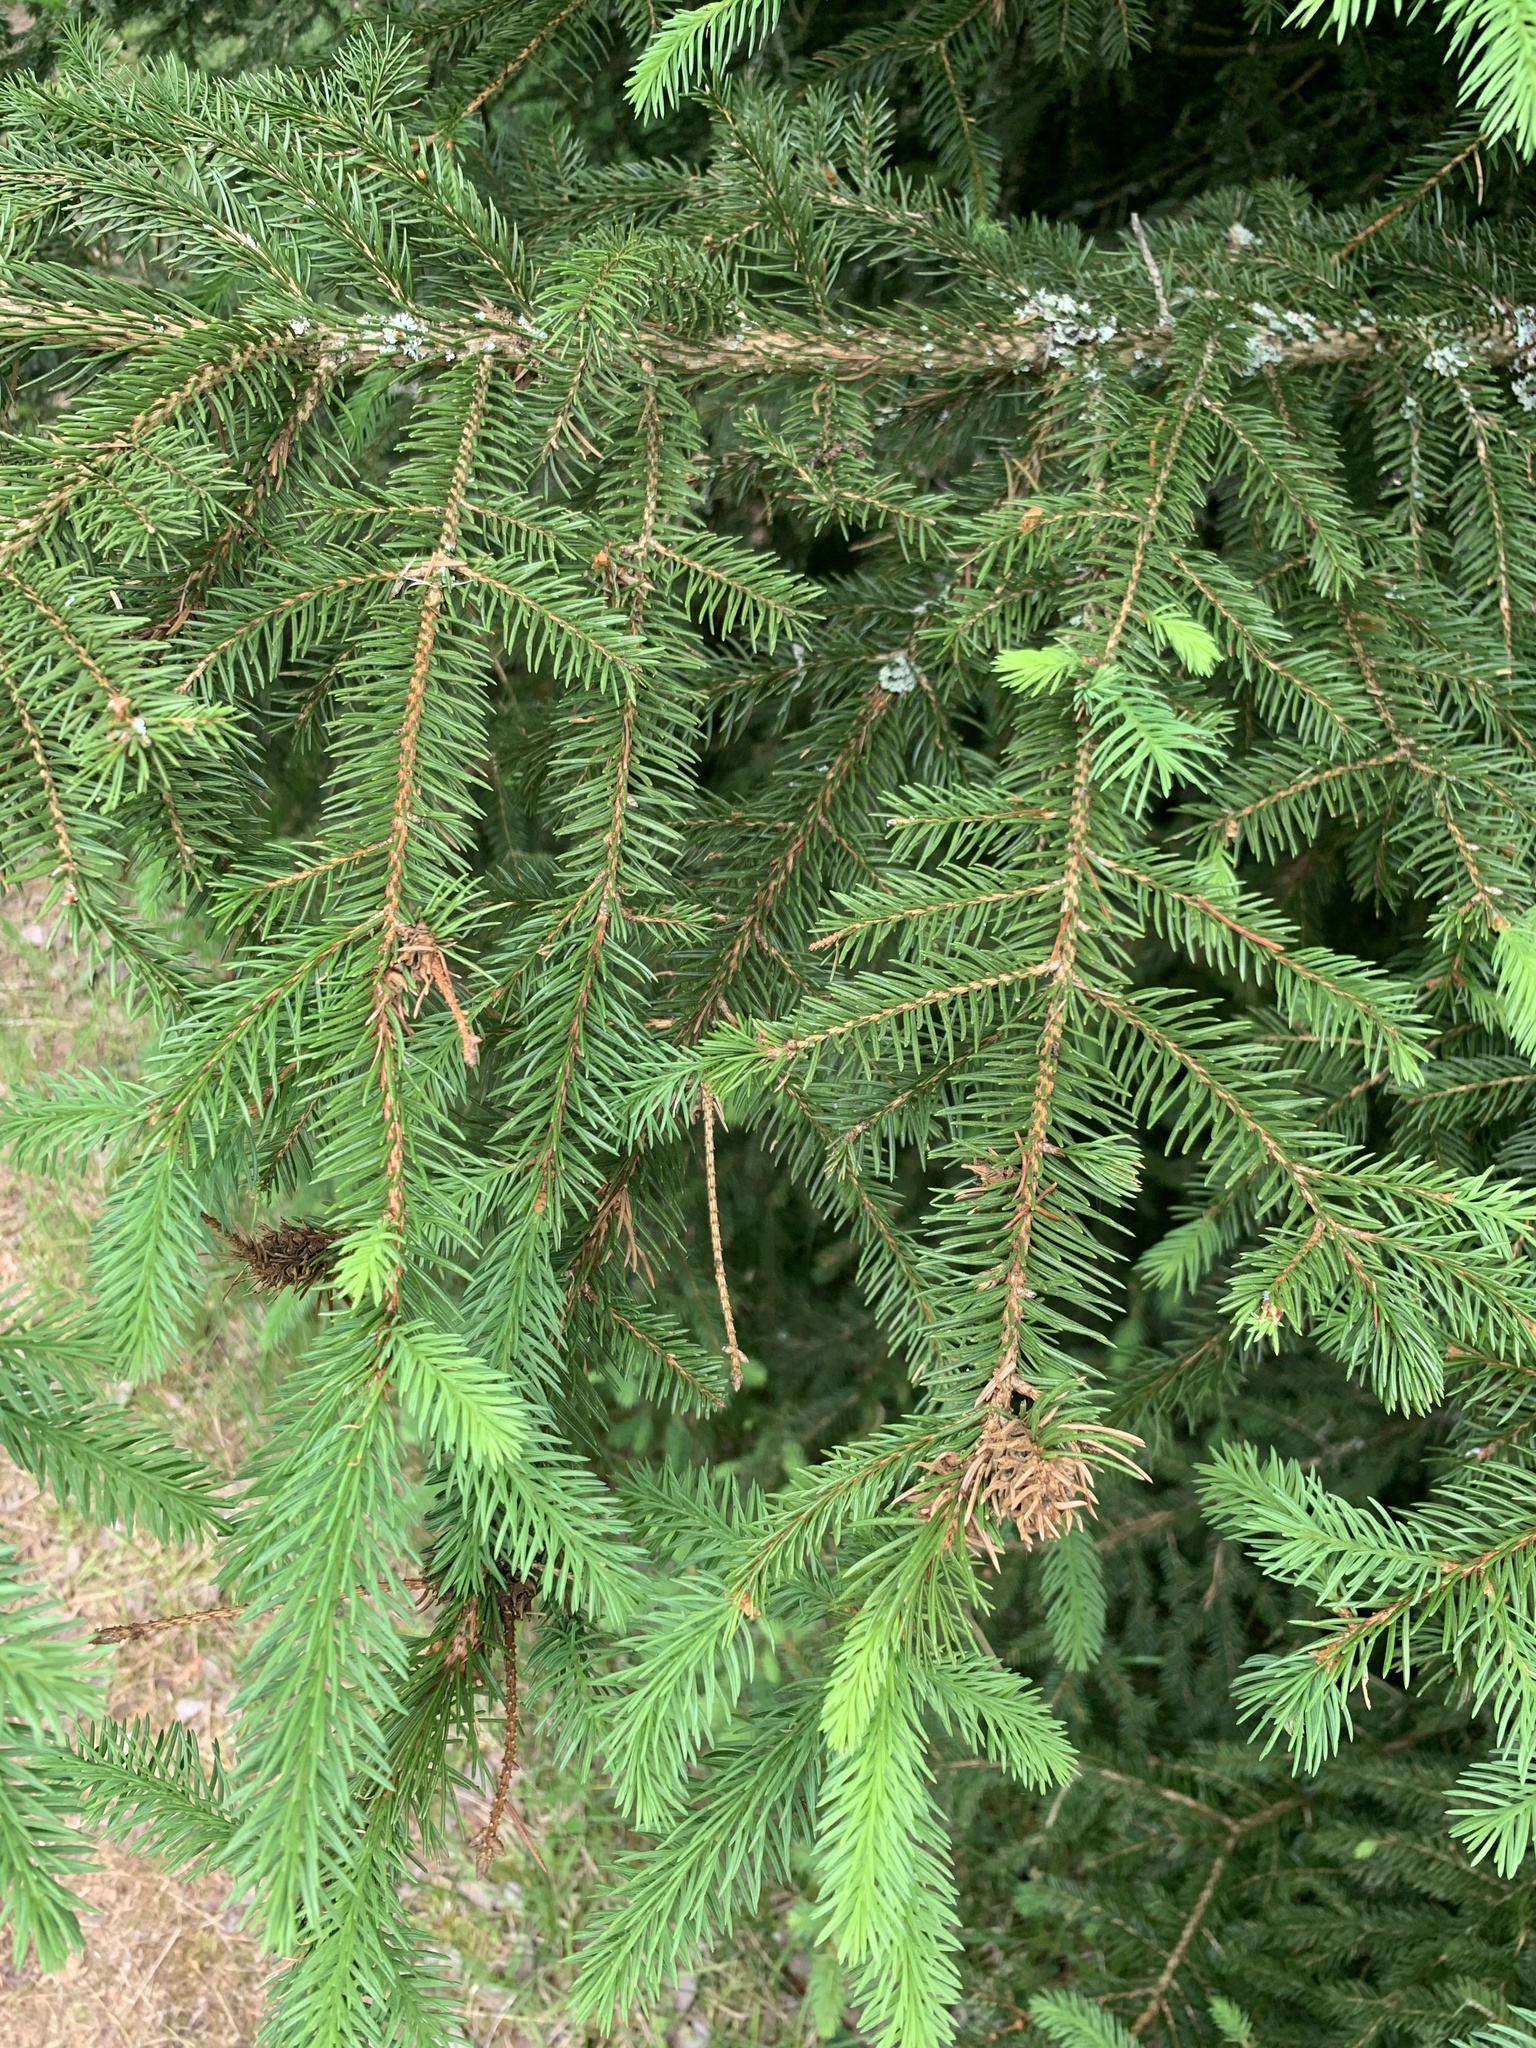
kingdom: Plantae
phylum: Tracheophyta
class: Pinopsida
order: Pinales
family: Pinaceae
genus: Picea
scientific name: Picea abies
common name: Norway spruce
